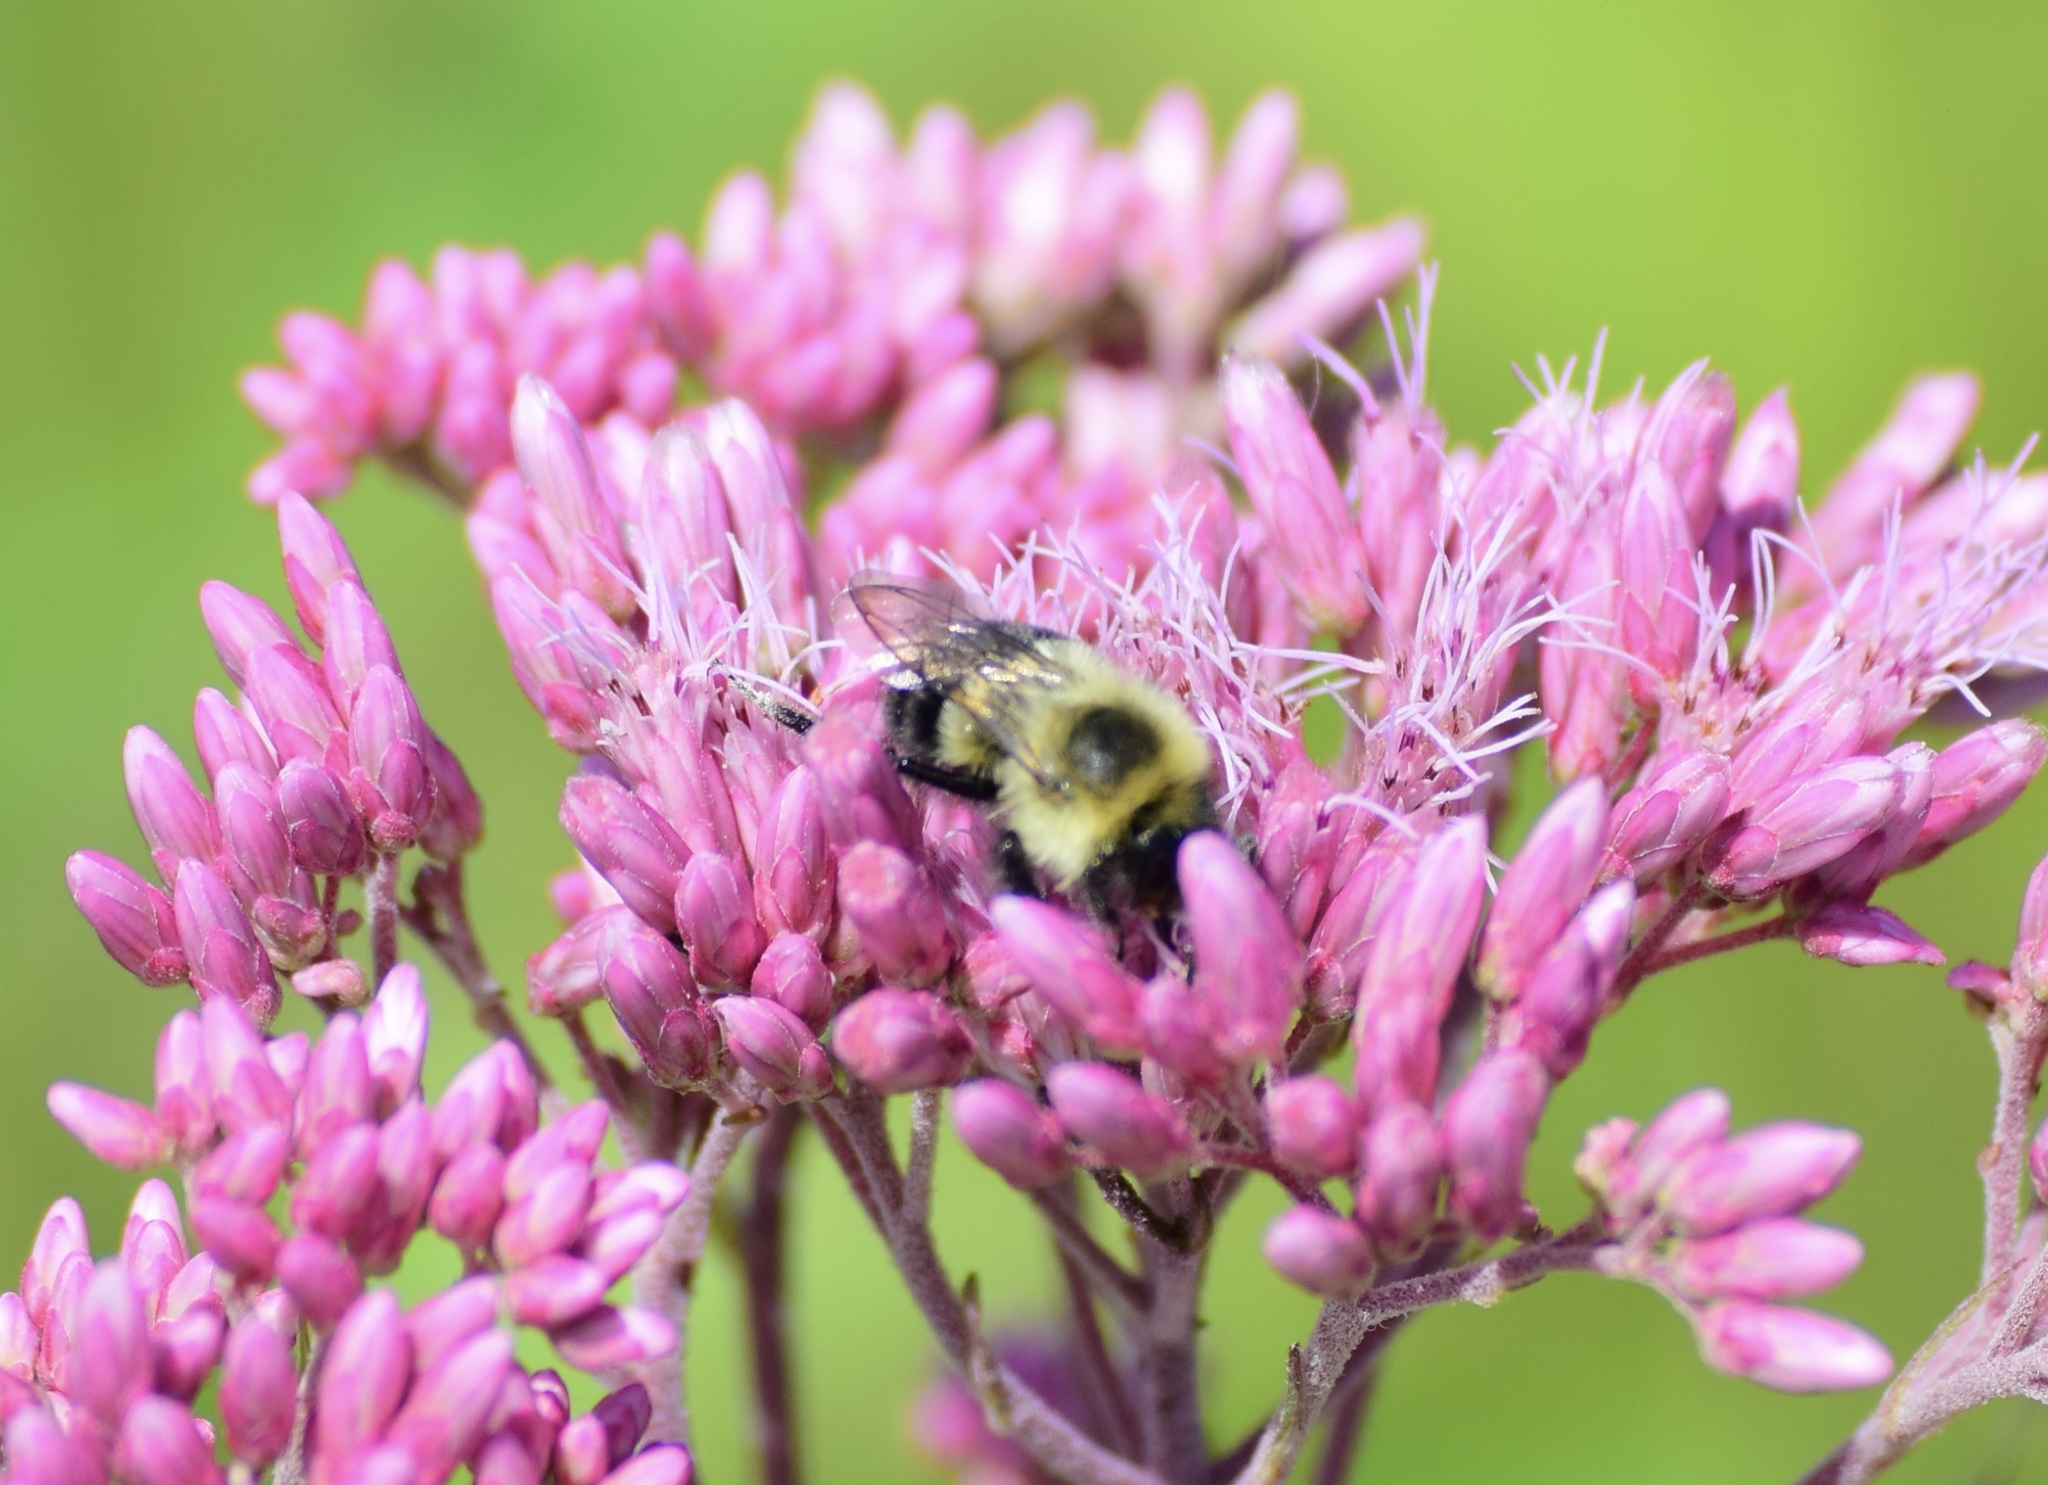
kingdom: Animalia
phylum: Arthropoda
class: Insecta
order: Hymenoptera
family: Apidae
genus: Bombus
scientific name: Bombus impatiens
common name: Common eastern bumble bee
